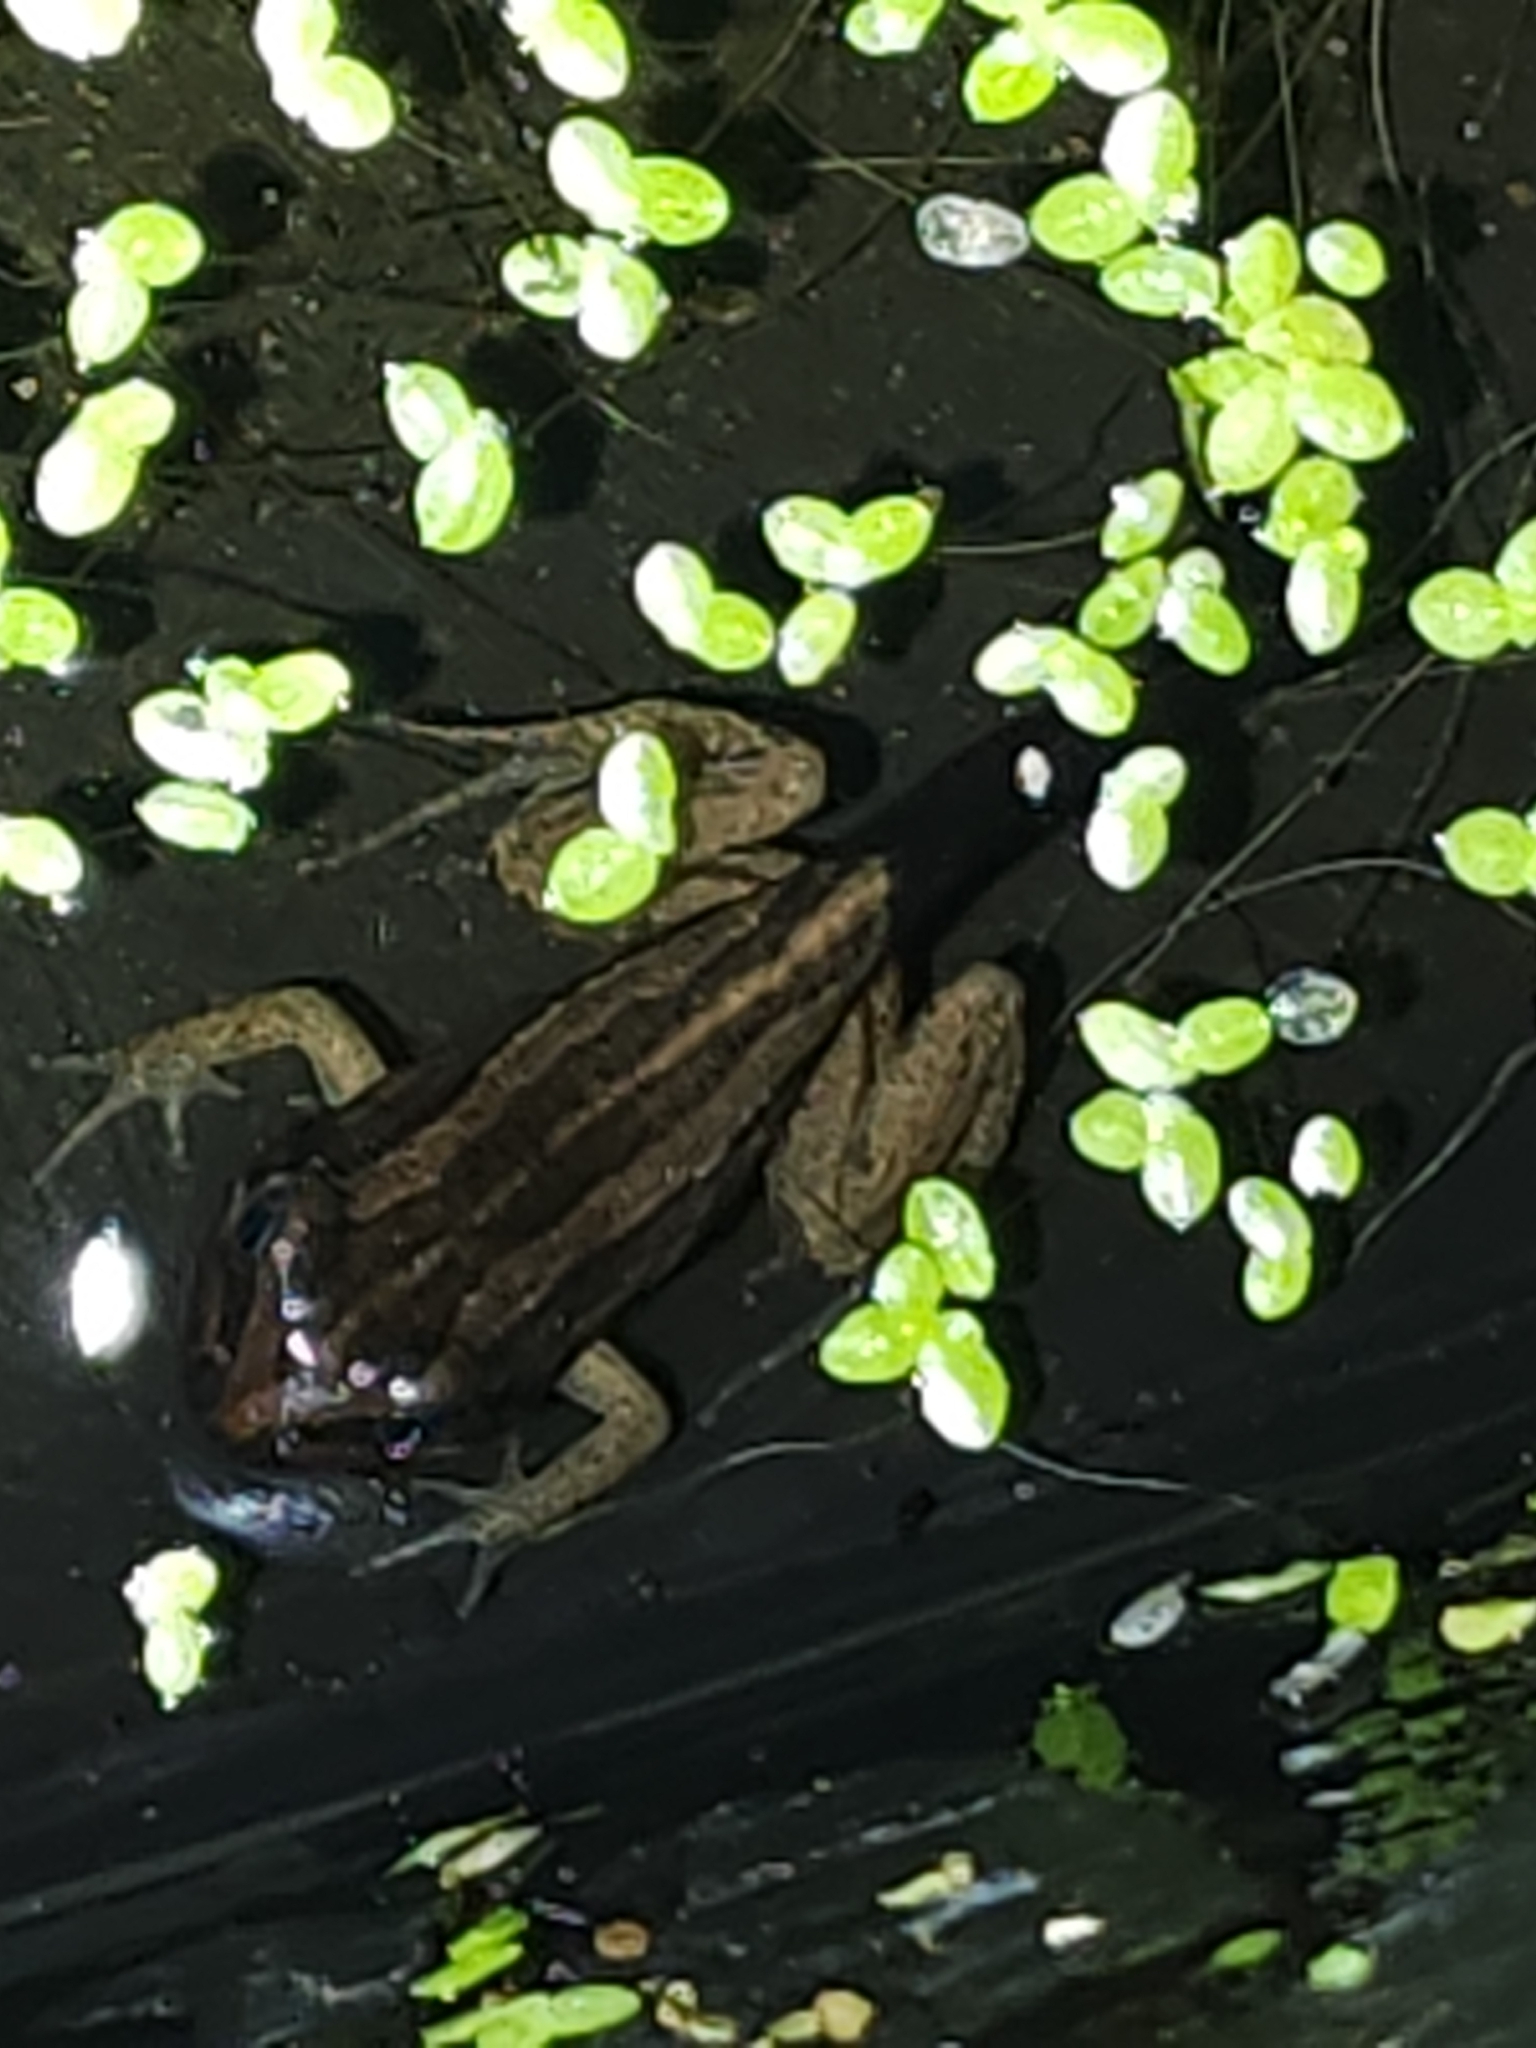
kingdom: Animalia
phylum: Chordata
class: Amphibia
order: Anura
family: Limnodynastidae
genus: Limnodynastes
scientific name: Limnodynastes peronii
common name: Brown frog
